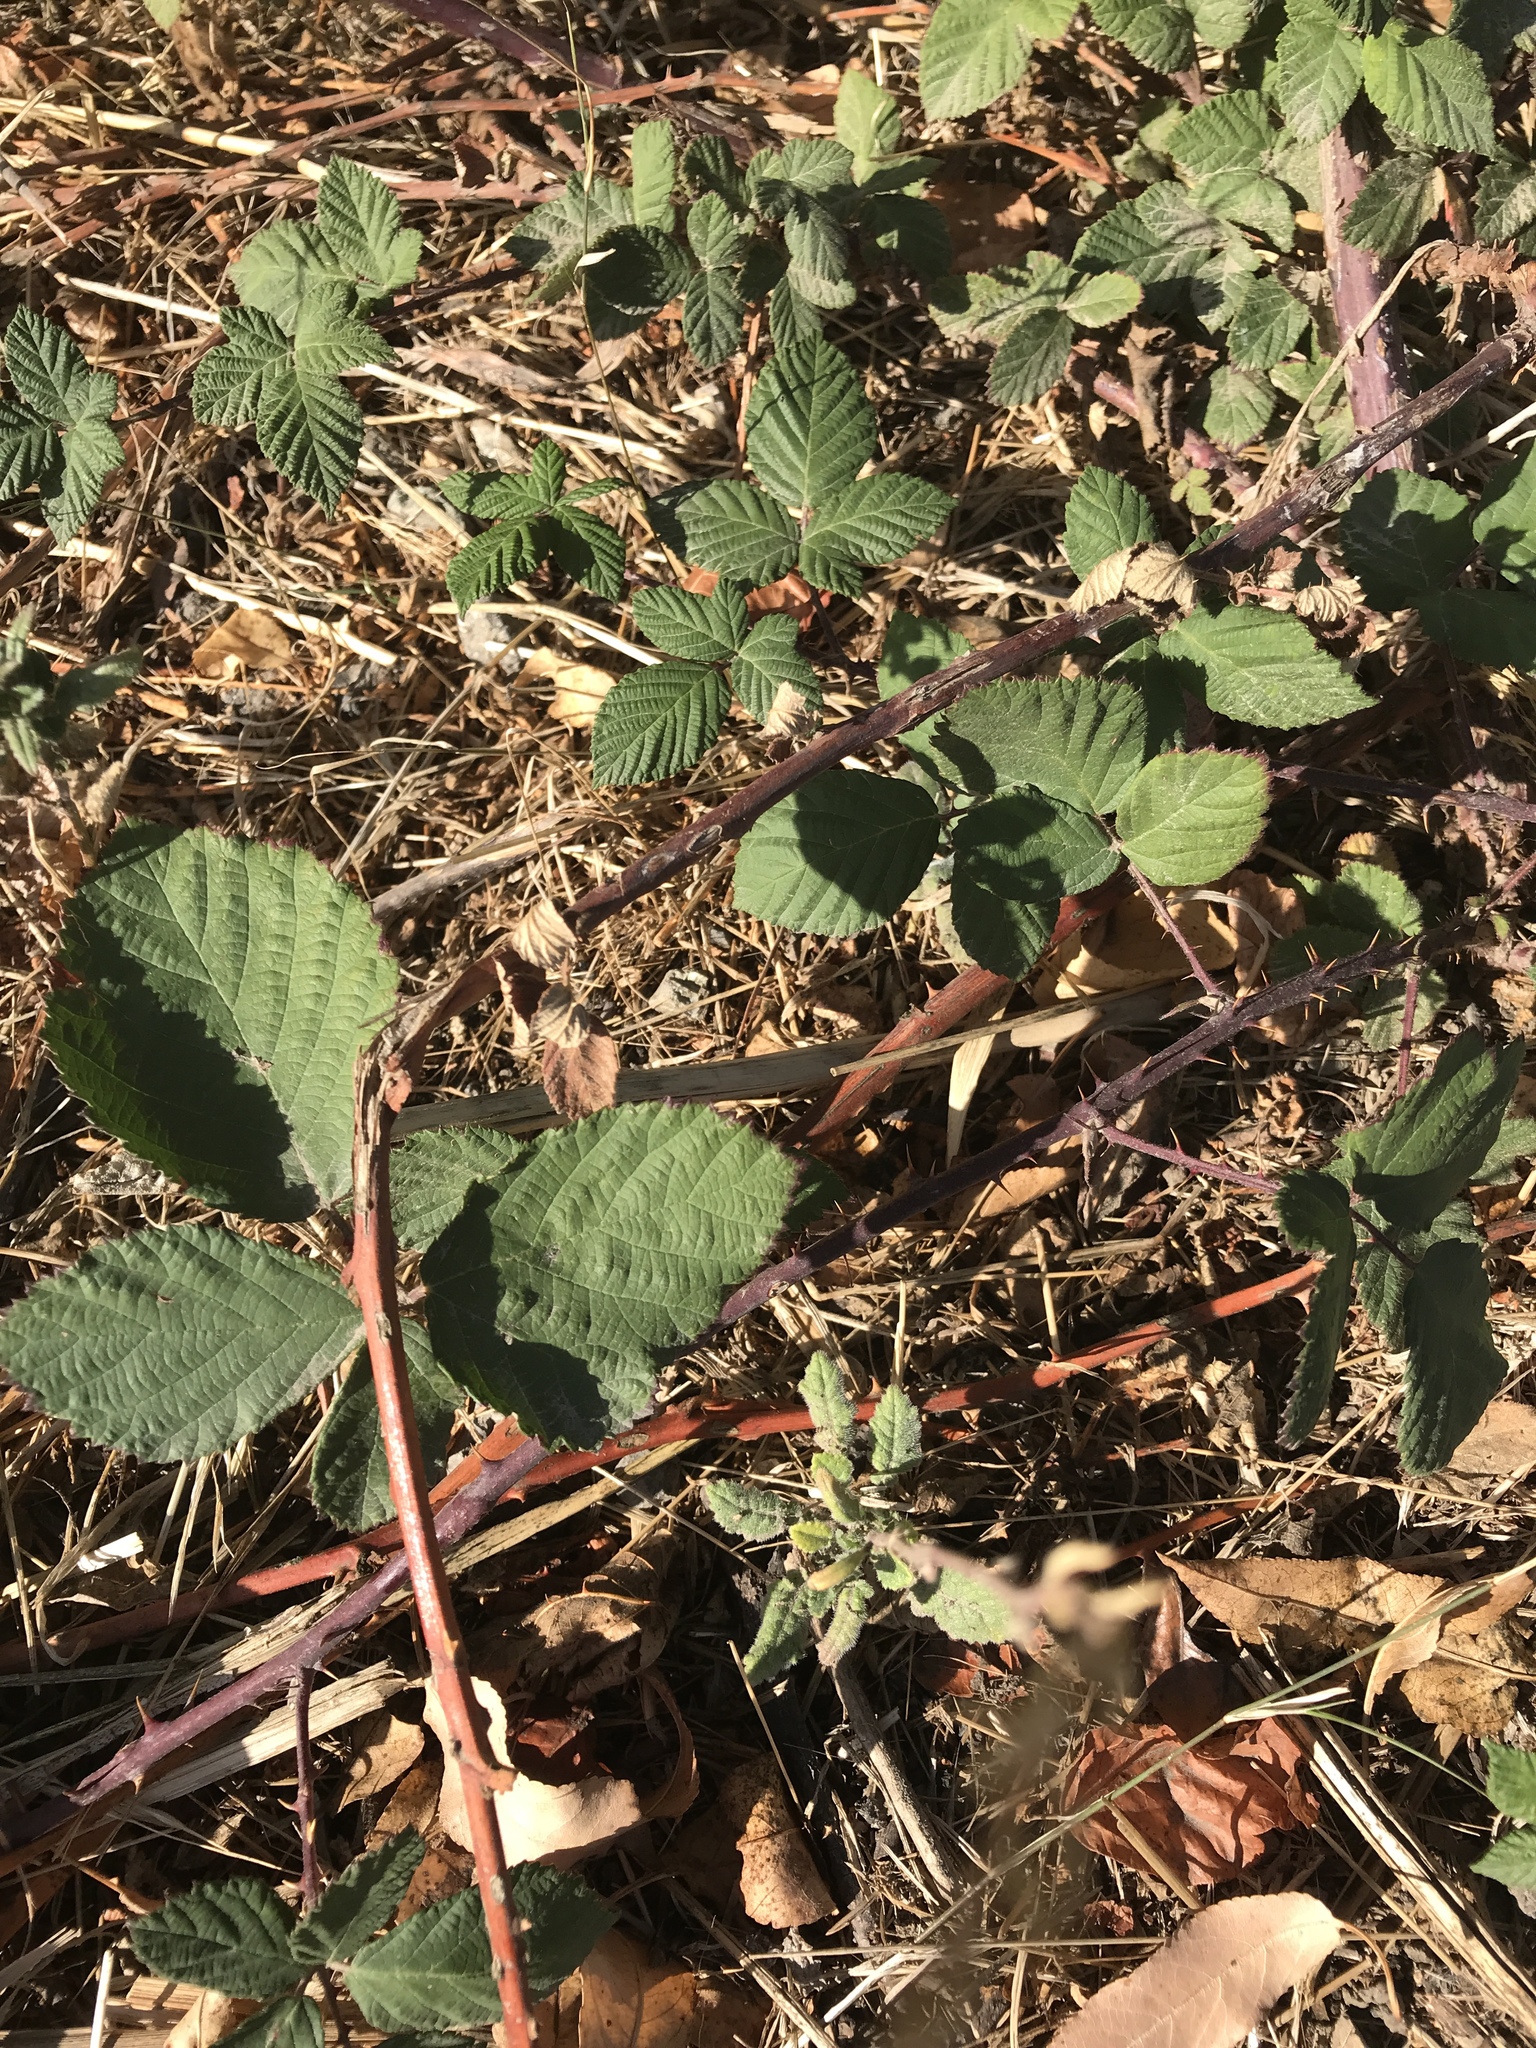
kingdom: Plantae
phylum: Tracheophyta
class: Magnoliopsida
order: Rosales
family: Rosaceae
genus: Rubus
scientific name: Rubus armeniacus
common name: Himalayan blackberry
